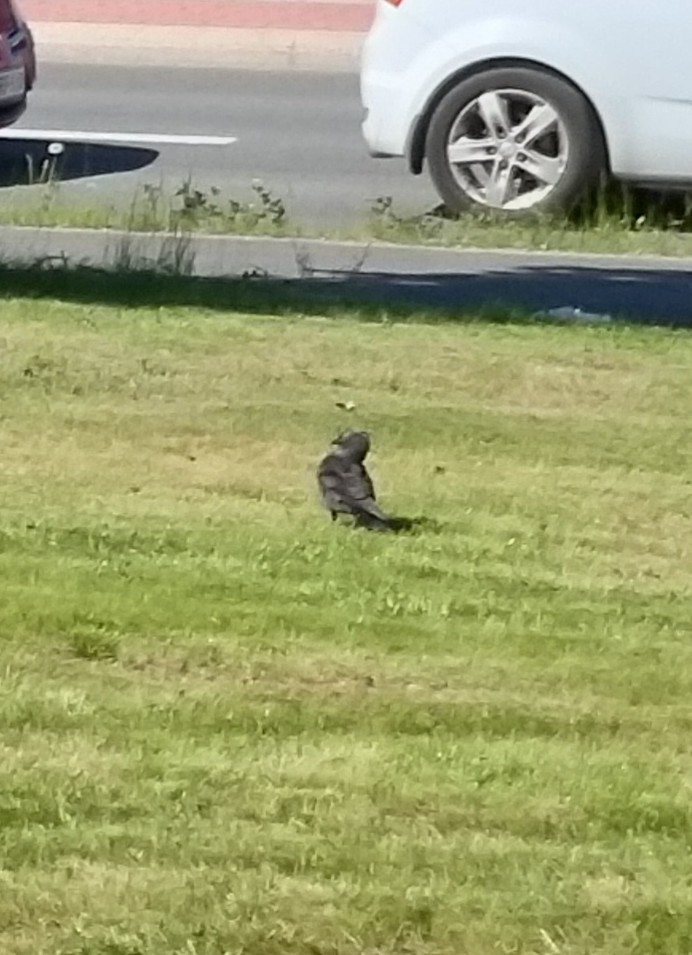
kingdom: Animalia
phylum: Chordata
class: Aves
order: Passeriformes
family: Corvidae
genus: Coloeus
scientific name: Coloeus monedula
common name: Western jackdaw
